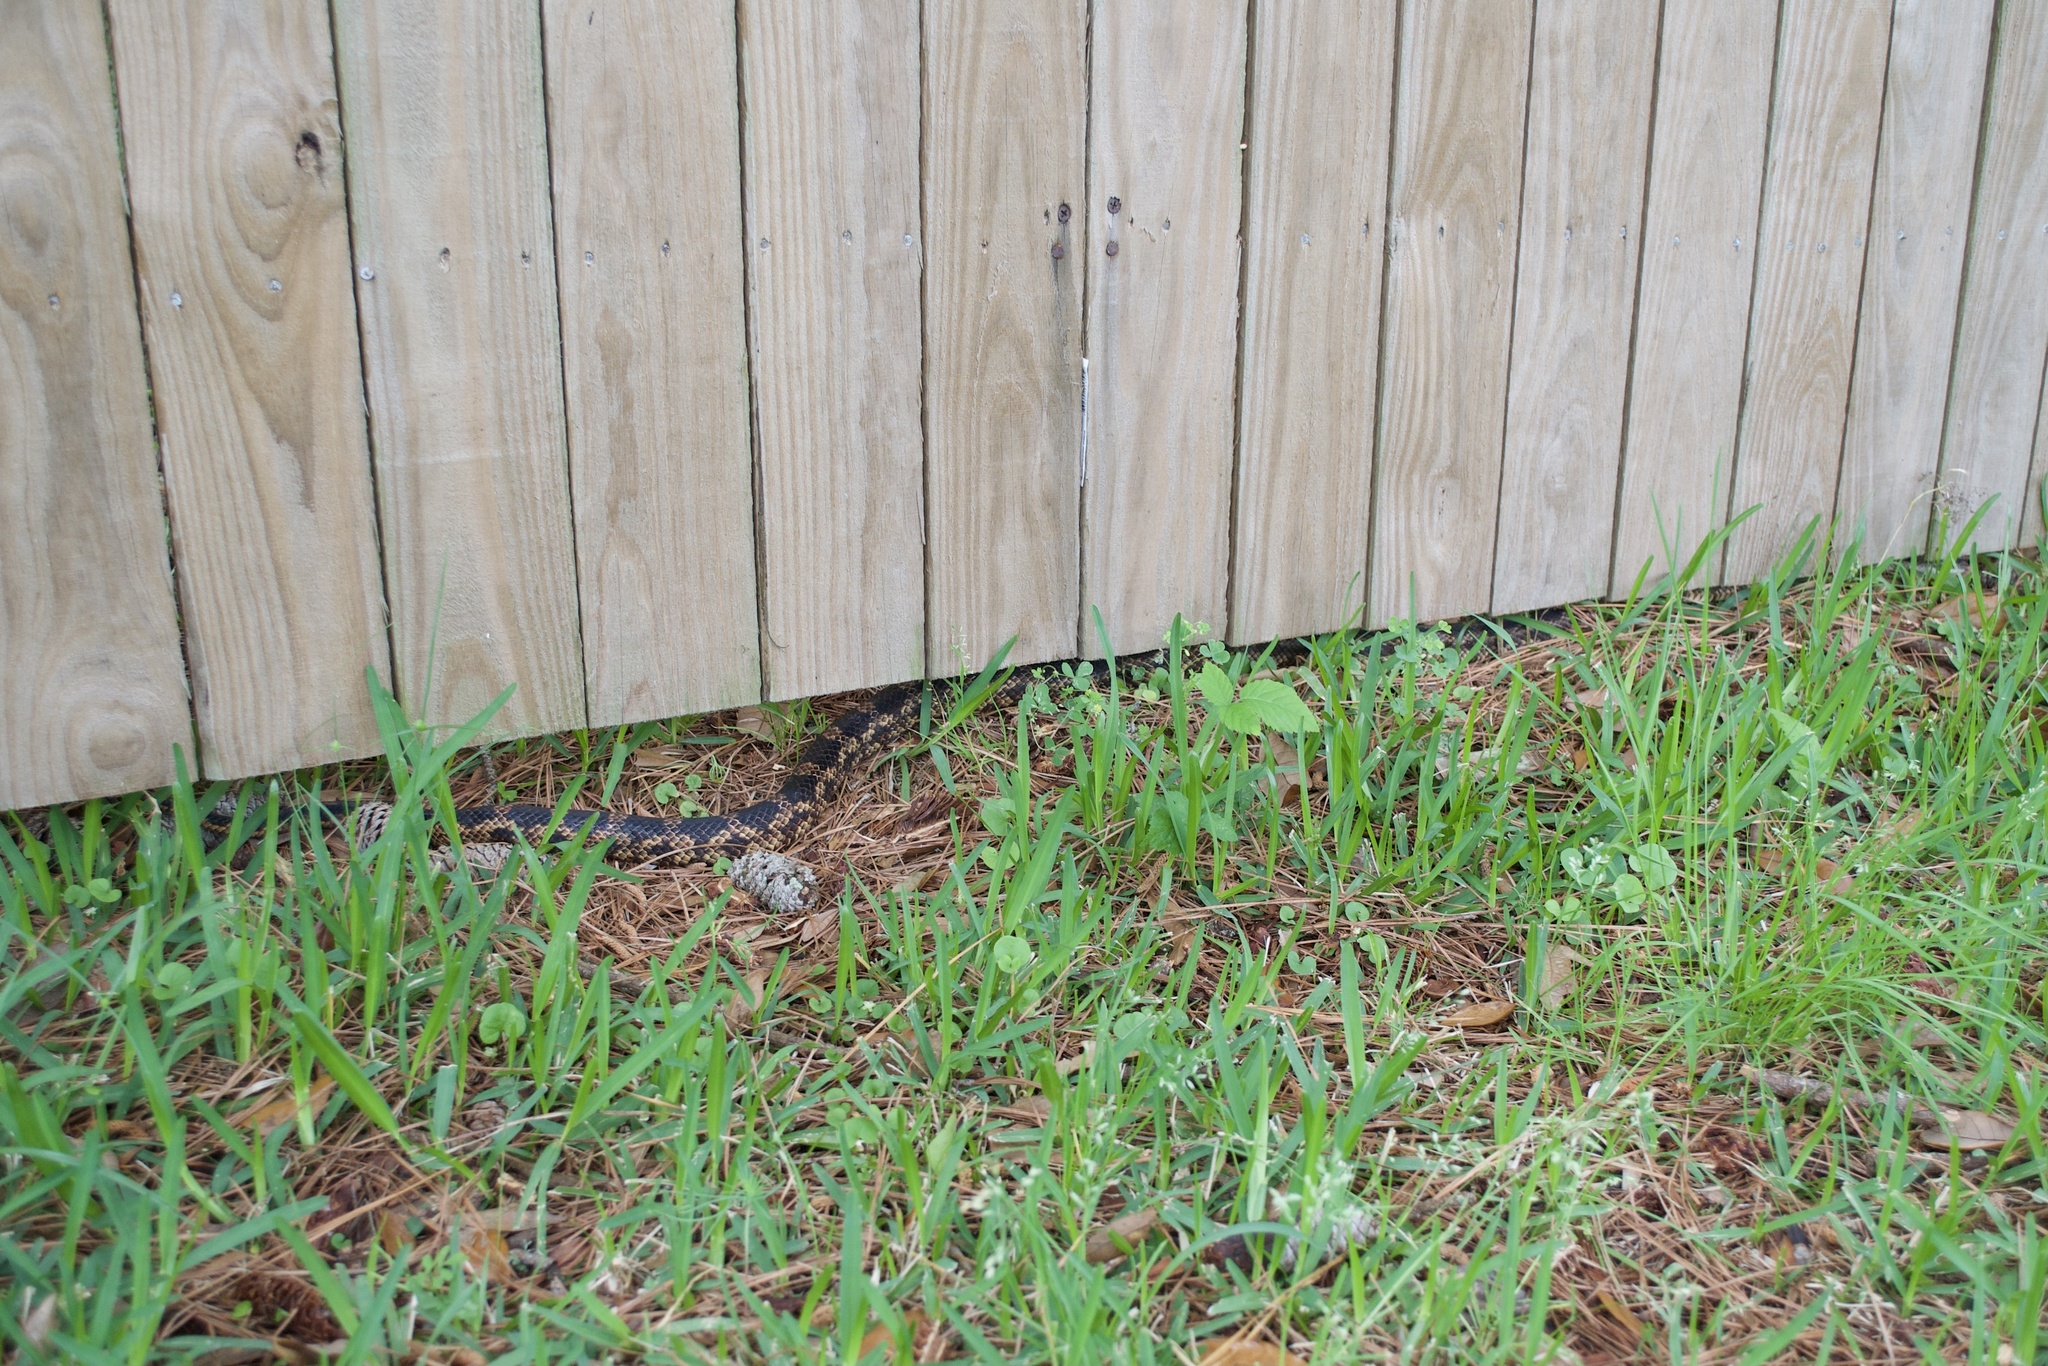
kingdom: Animalia
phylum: Chordata
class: Squamata
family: Colubridae
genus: Pantherophis
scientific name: Pantherophis obsoletus
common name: Black rat snake
